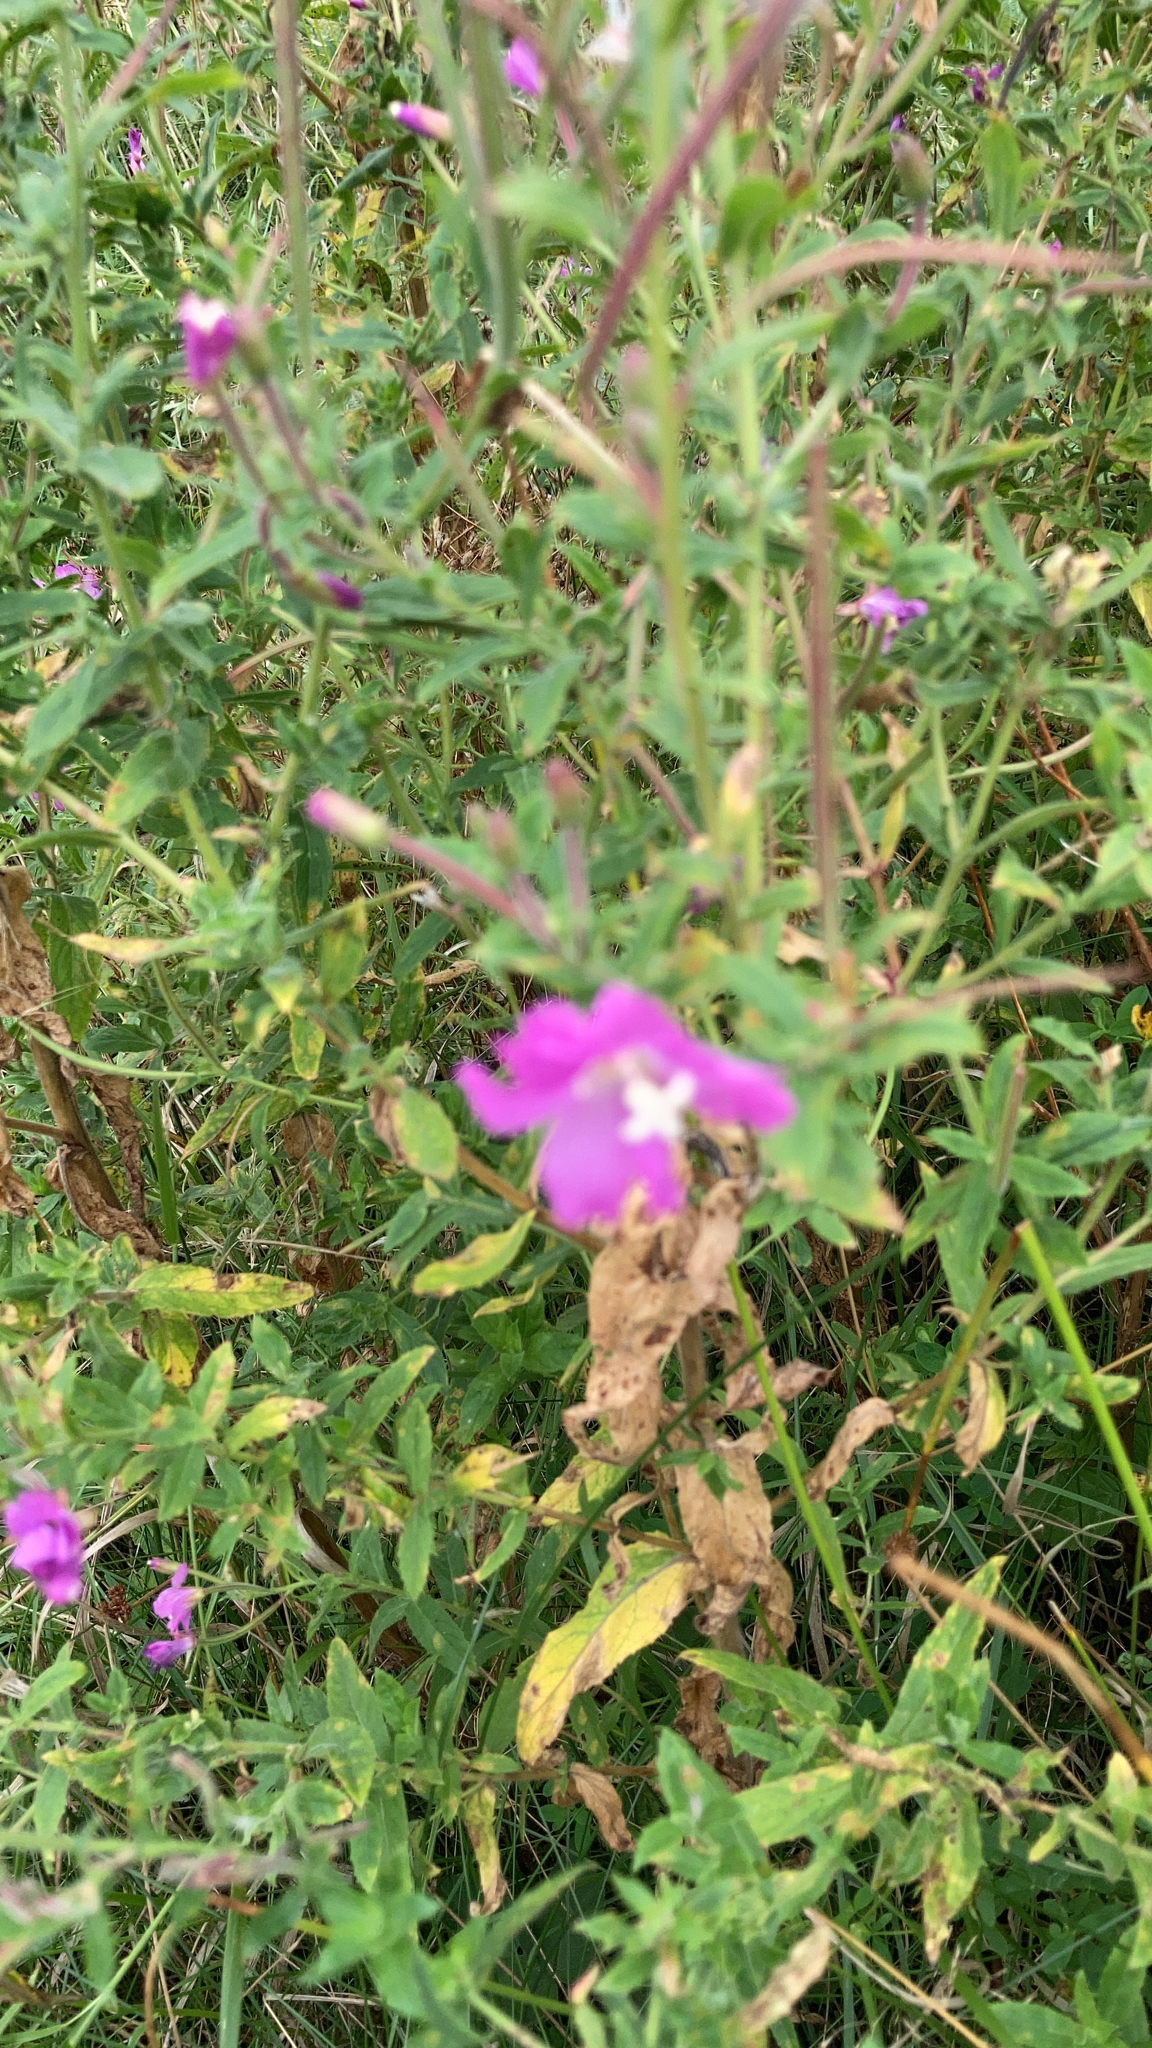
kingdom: Plantae
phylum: Tracheophyta
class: Magnoliopsida
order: Myrtales
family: Onagraceae
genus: Epilobium
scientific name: Epilobium hirsutum
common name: Great willowherb
